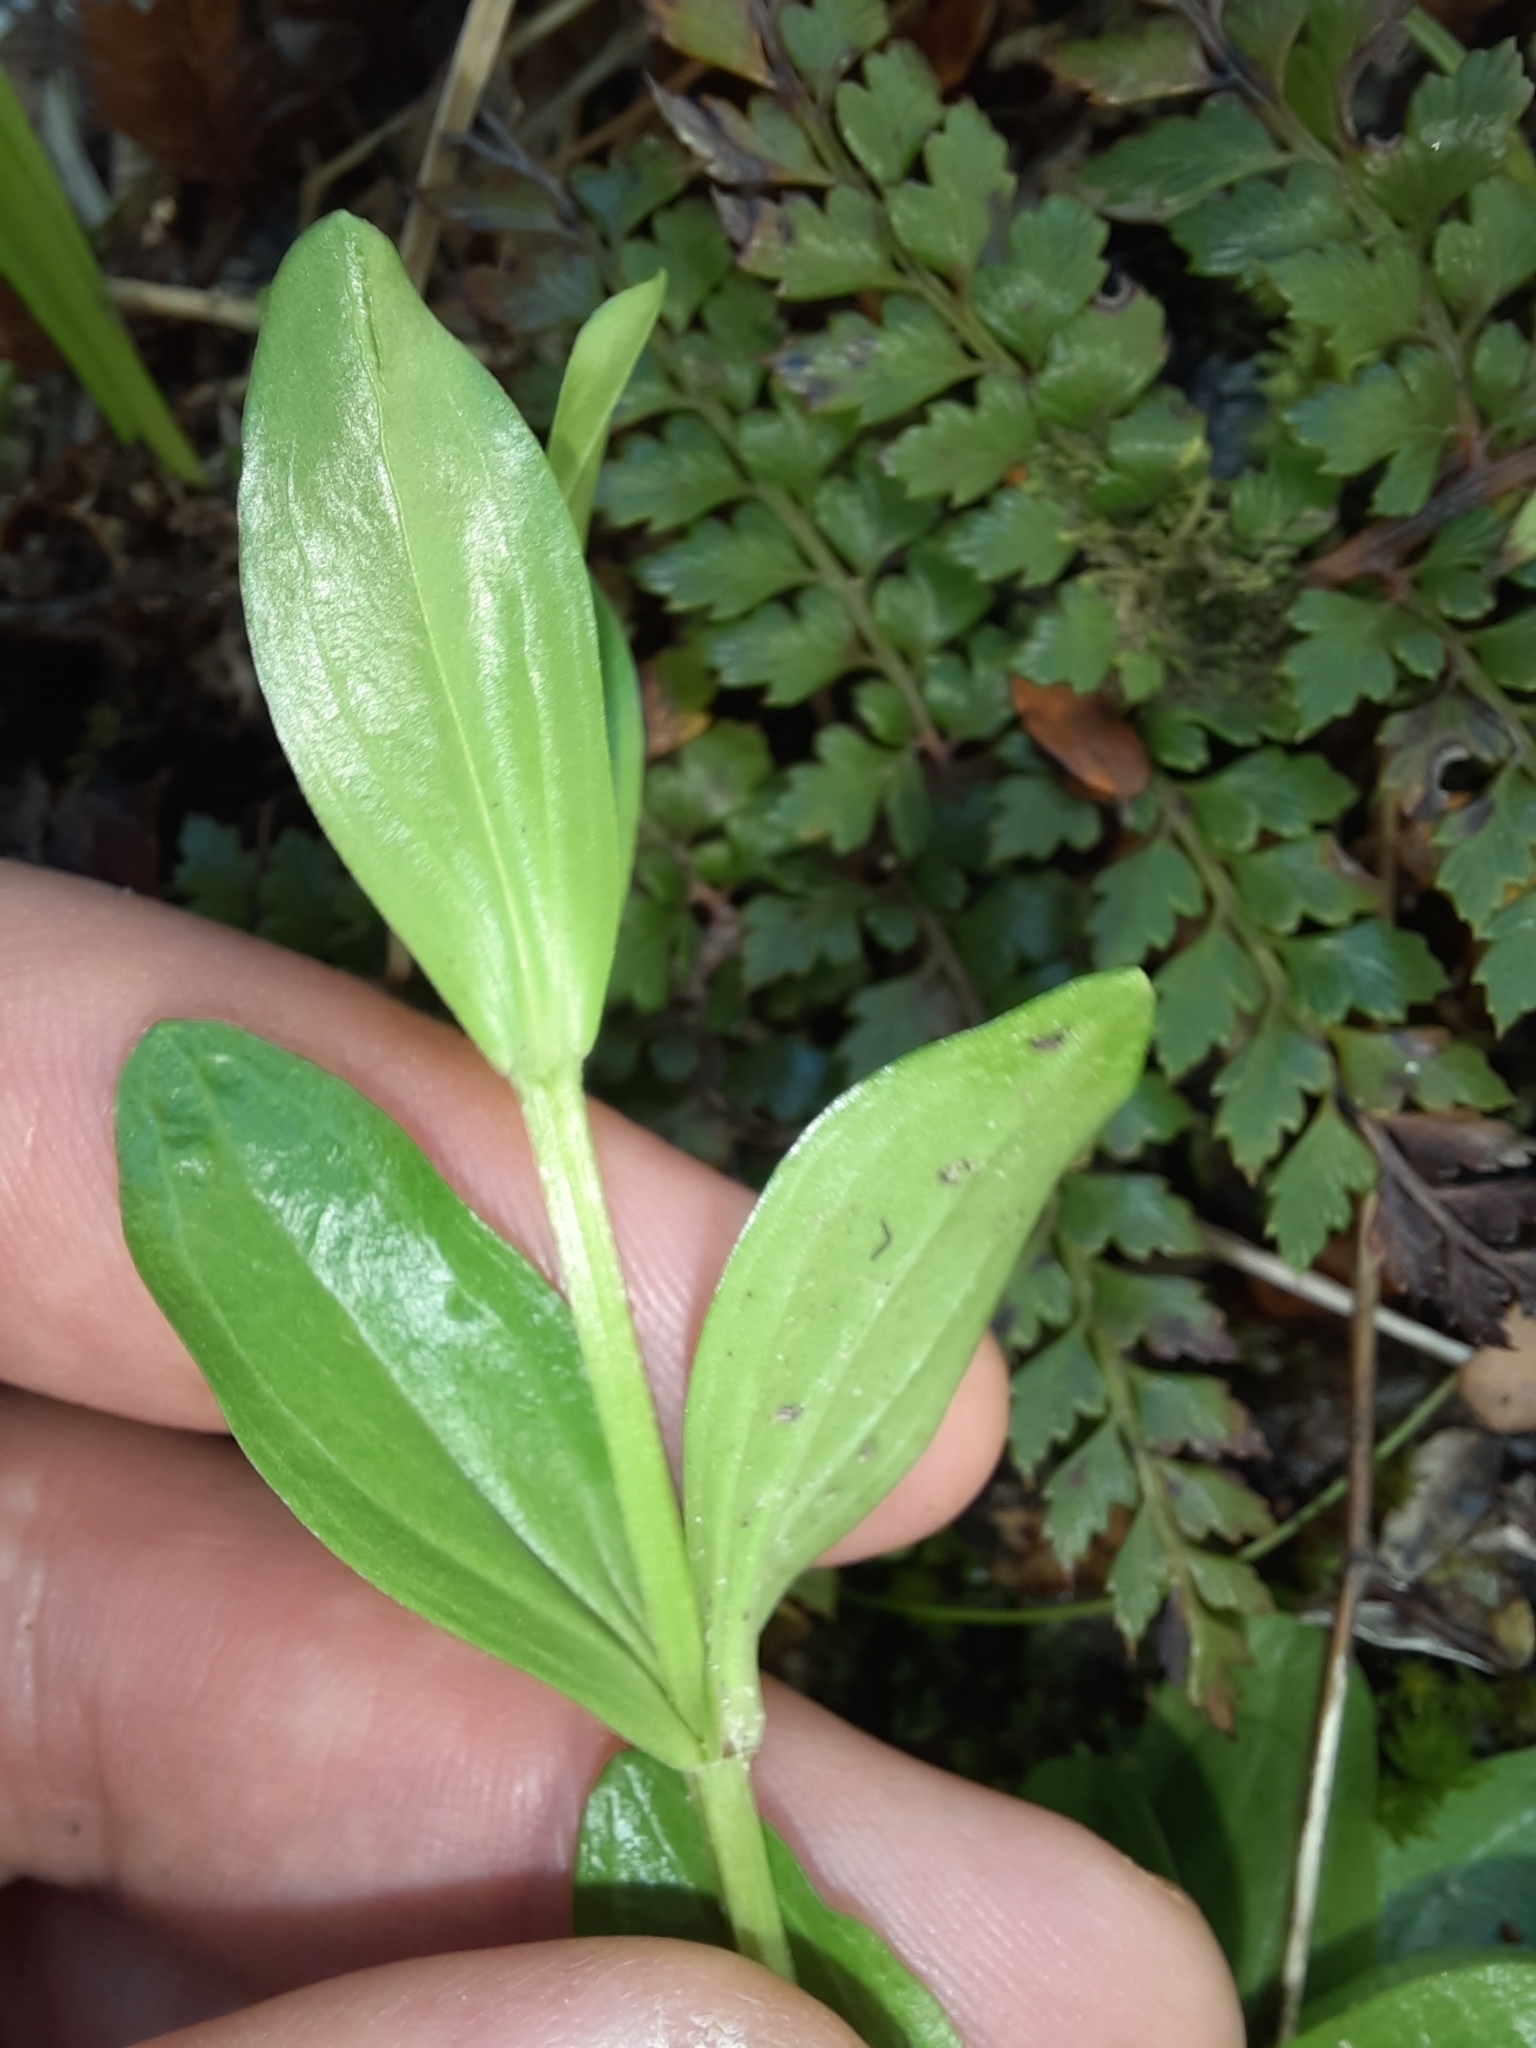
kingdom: Plantae
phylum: Tracheophyta
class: Magnoliopsida
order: Gentianales
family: Gentianaceae
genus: Centaurium
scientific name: Centaurium erythraea
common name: Common centaury
